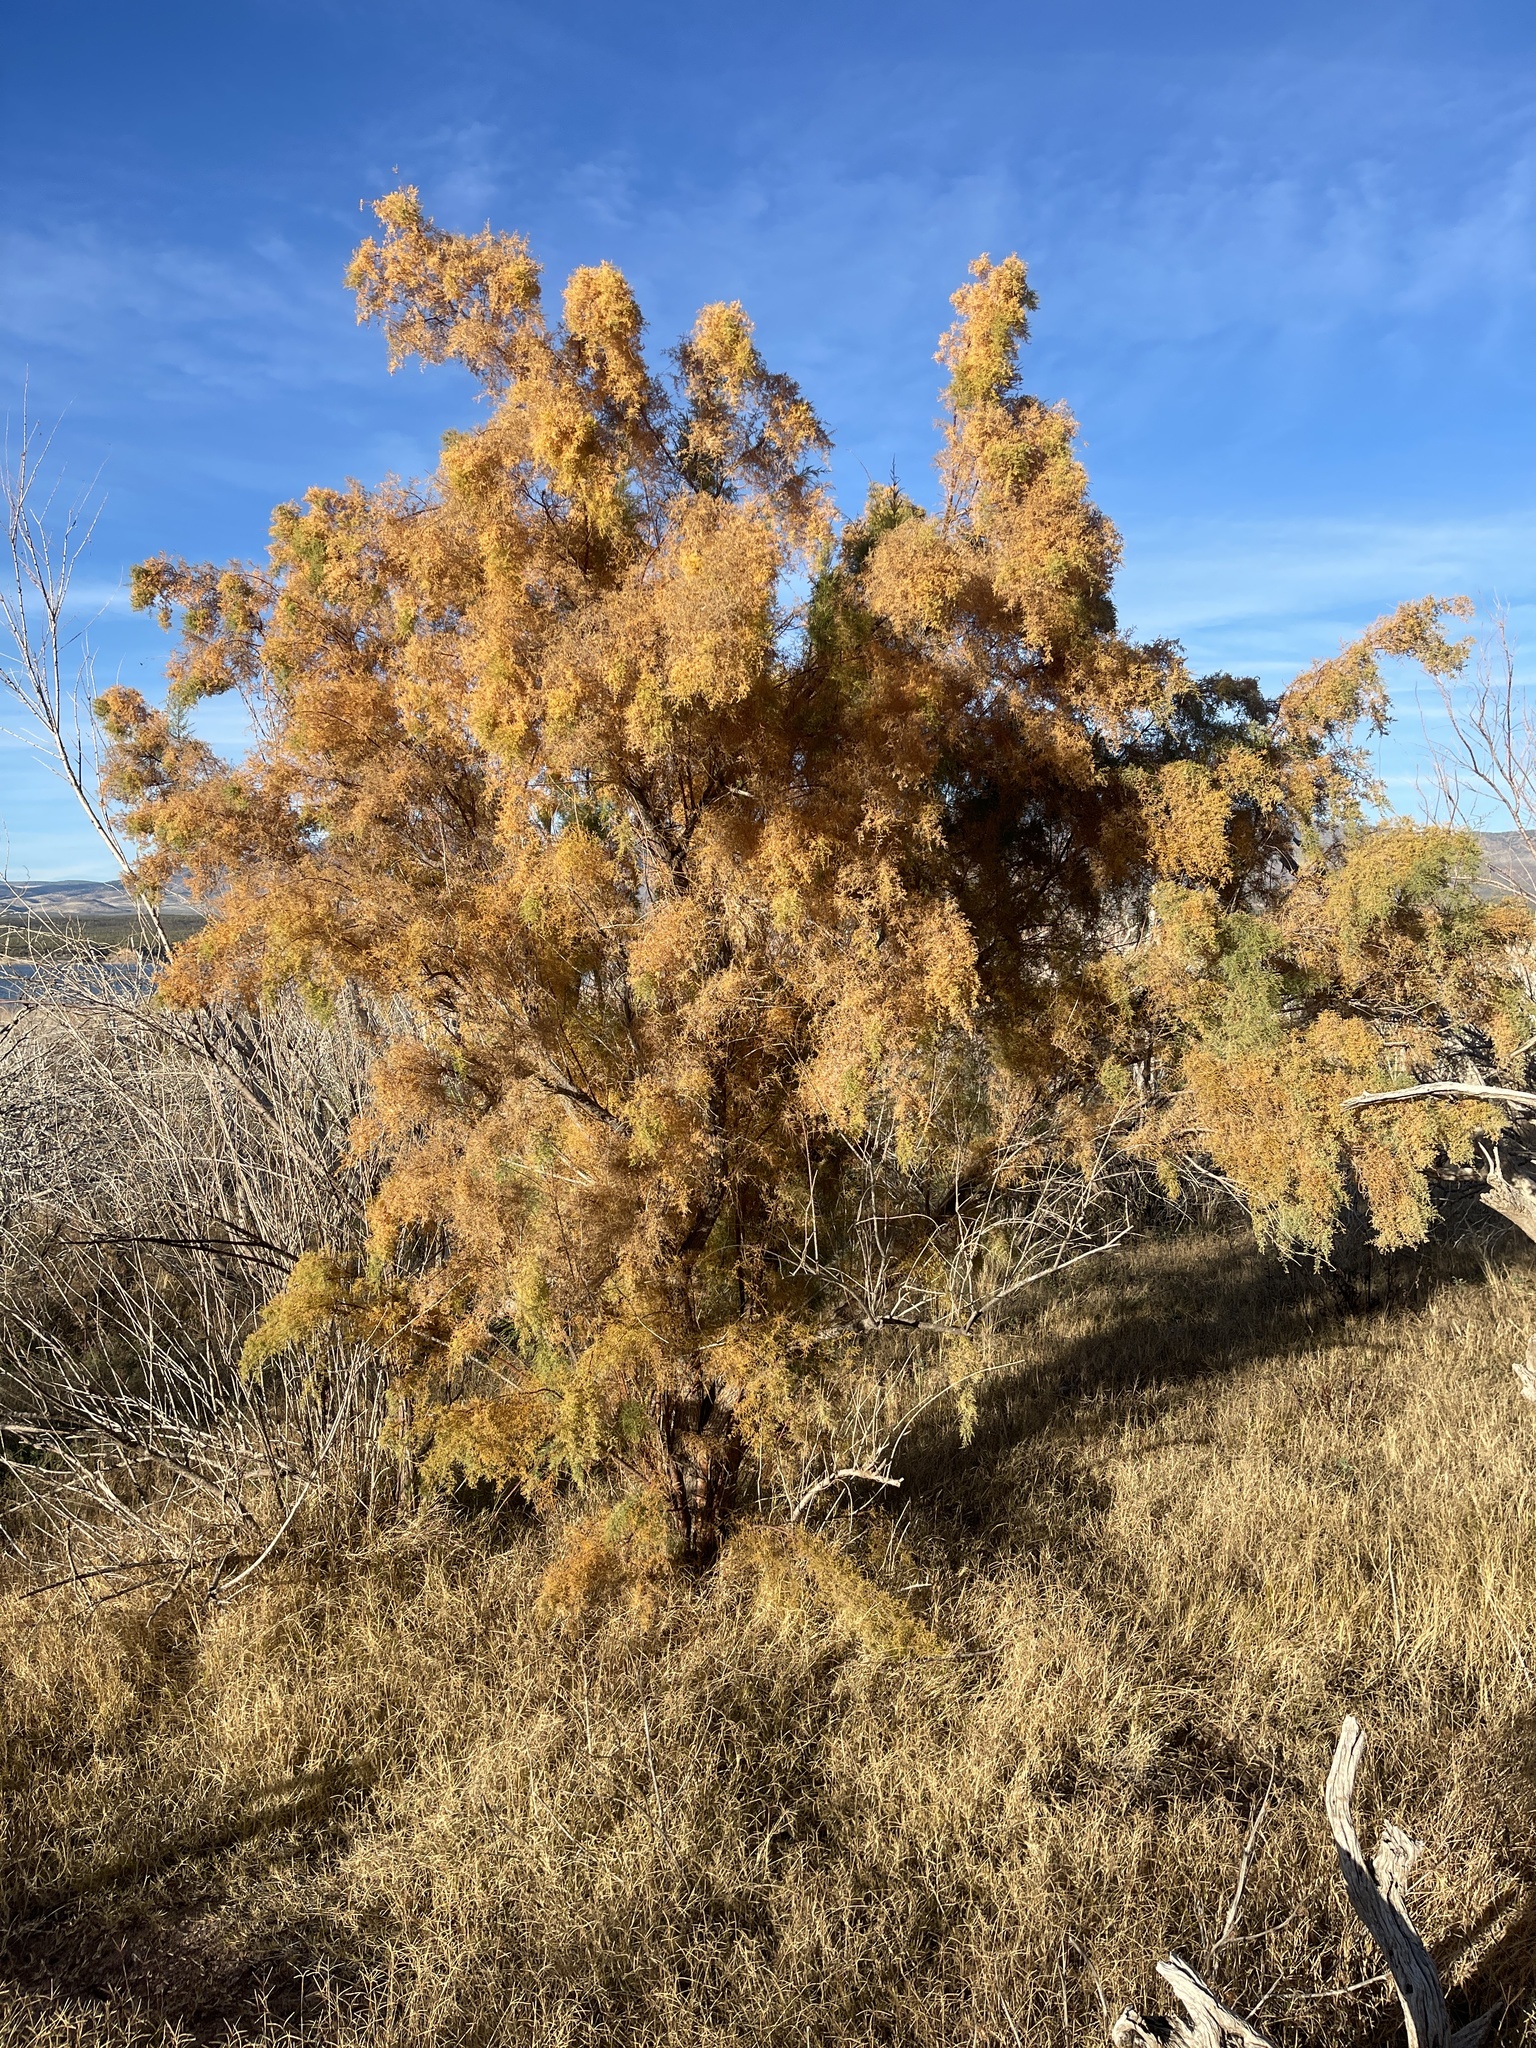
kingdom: Plantae
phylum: Tracheophyta
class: Magnoliopsida
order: Caryophyllales
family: Tamaricaceae
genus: Tamarix
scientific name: Tamarix
